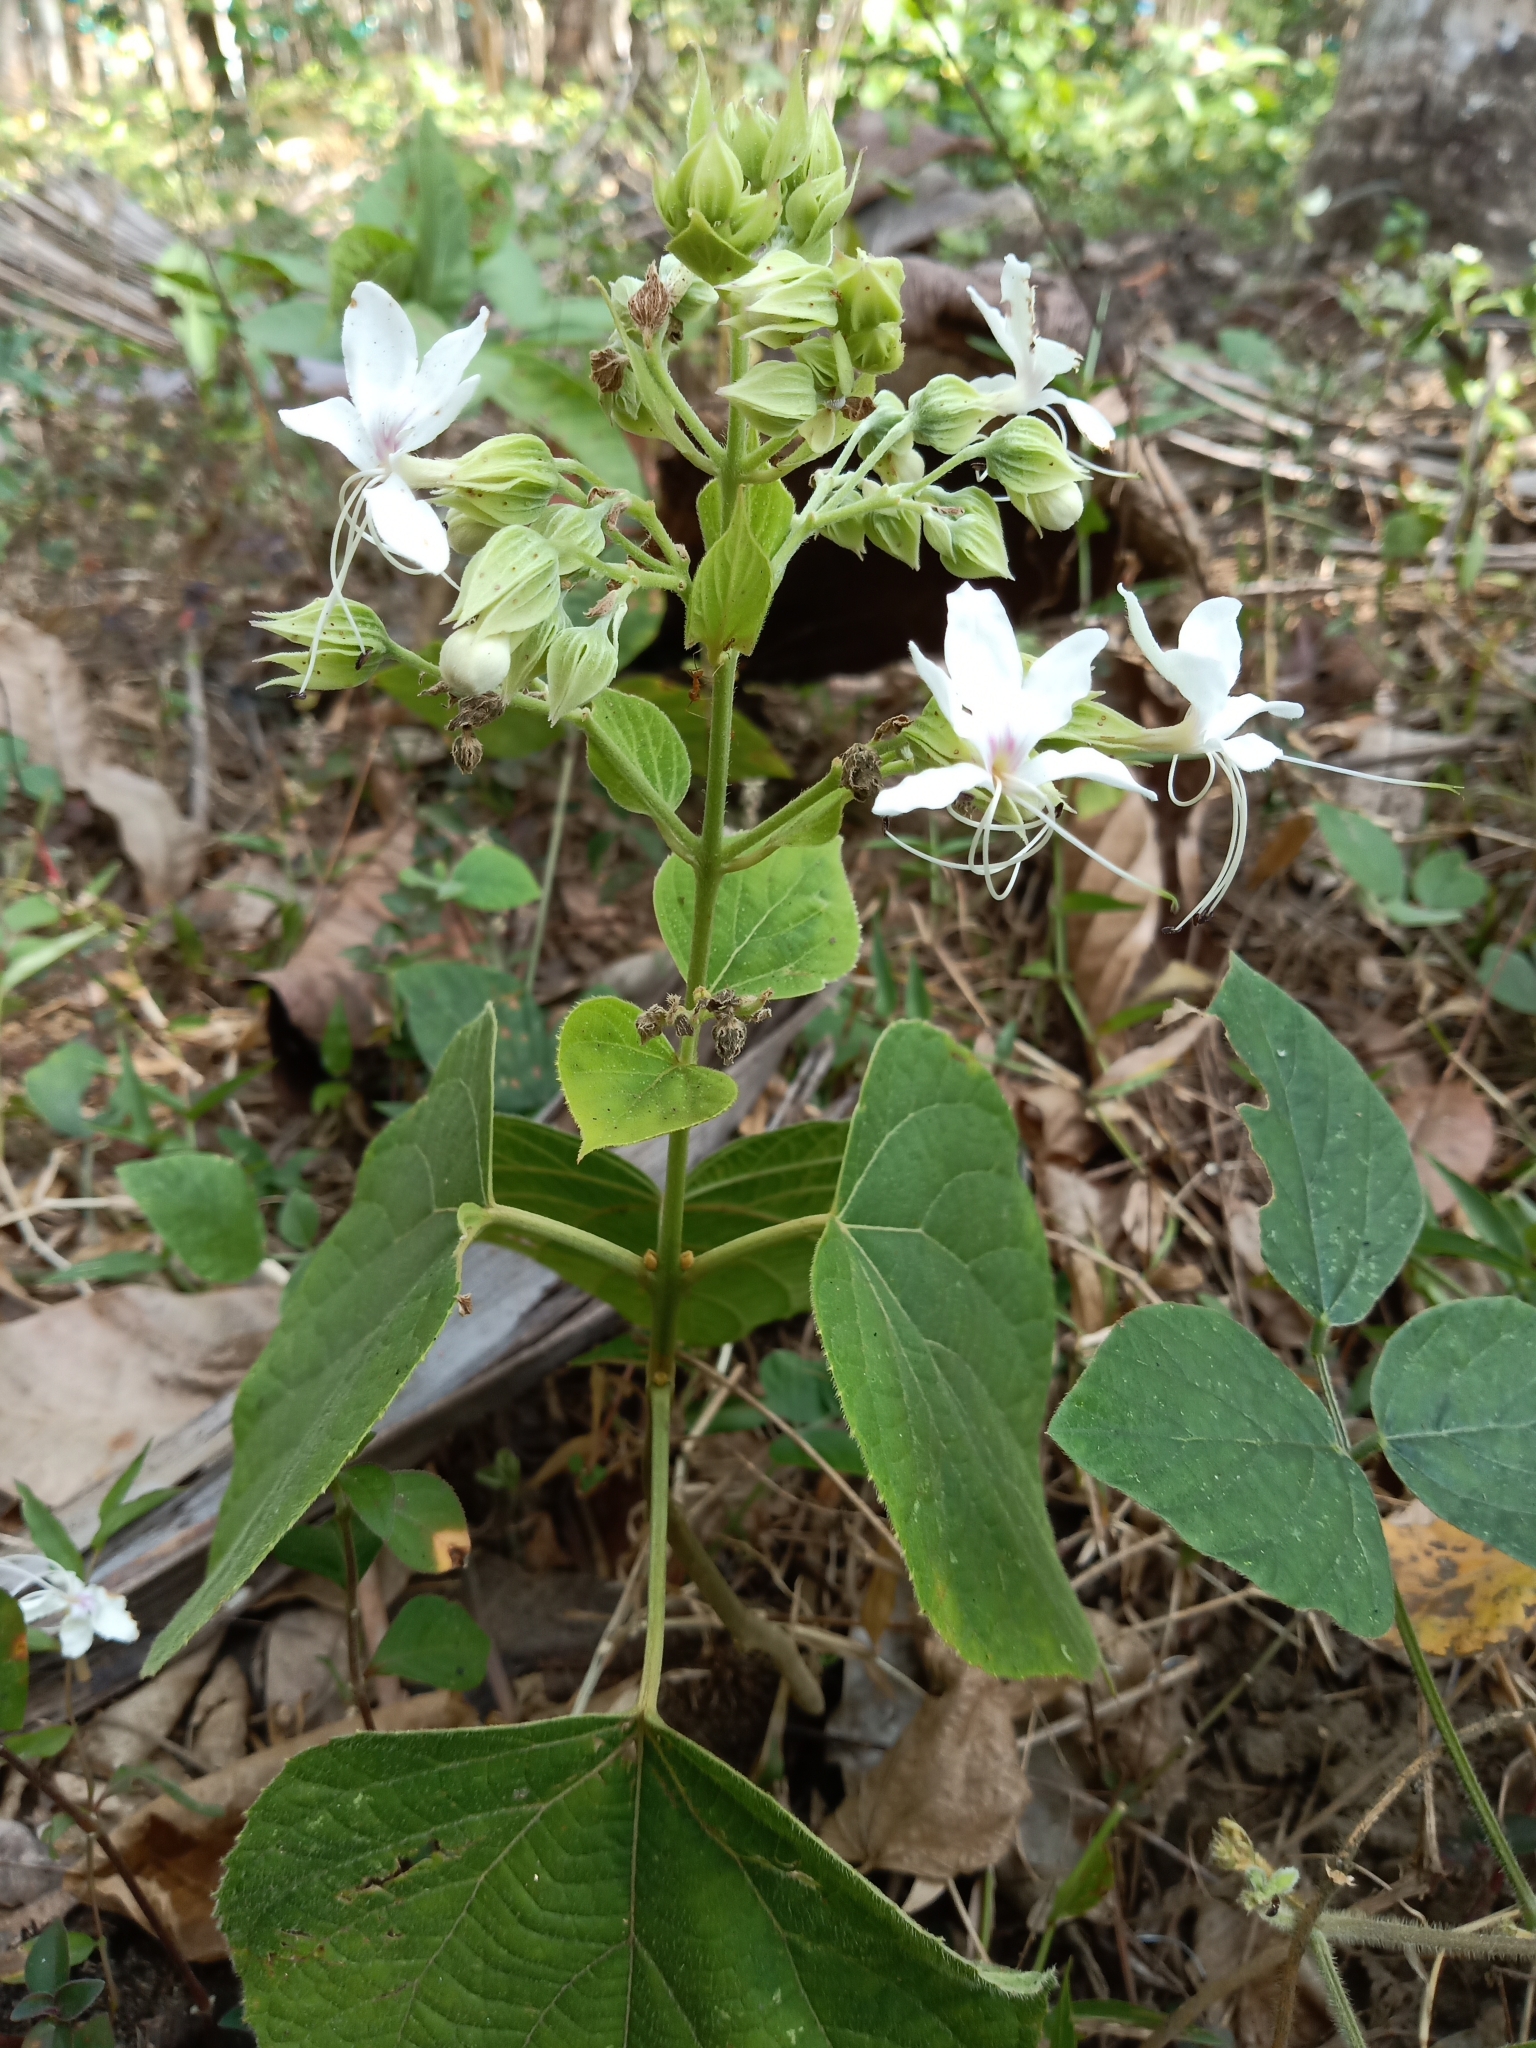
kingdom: Plantae
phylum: Tracheophyta
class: Magnoliopsida
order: Lamiales
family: Lamiaceae
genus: Clerodendrum
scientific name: Clerodendrum infortunatum
